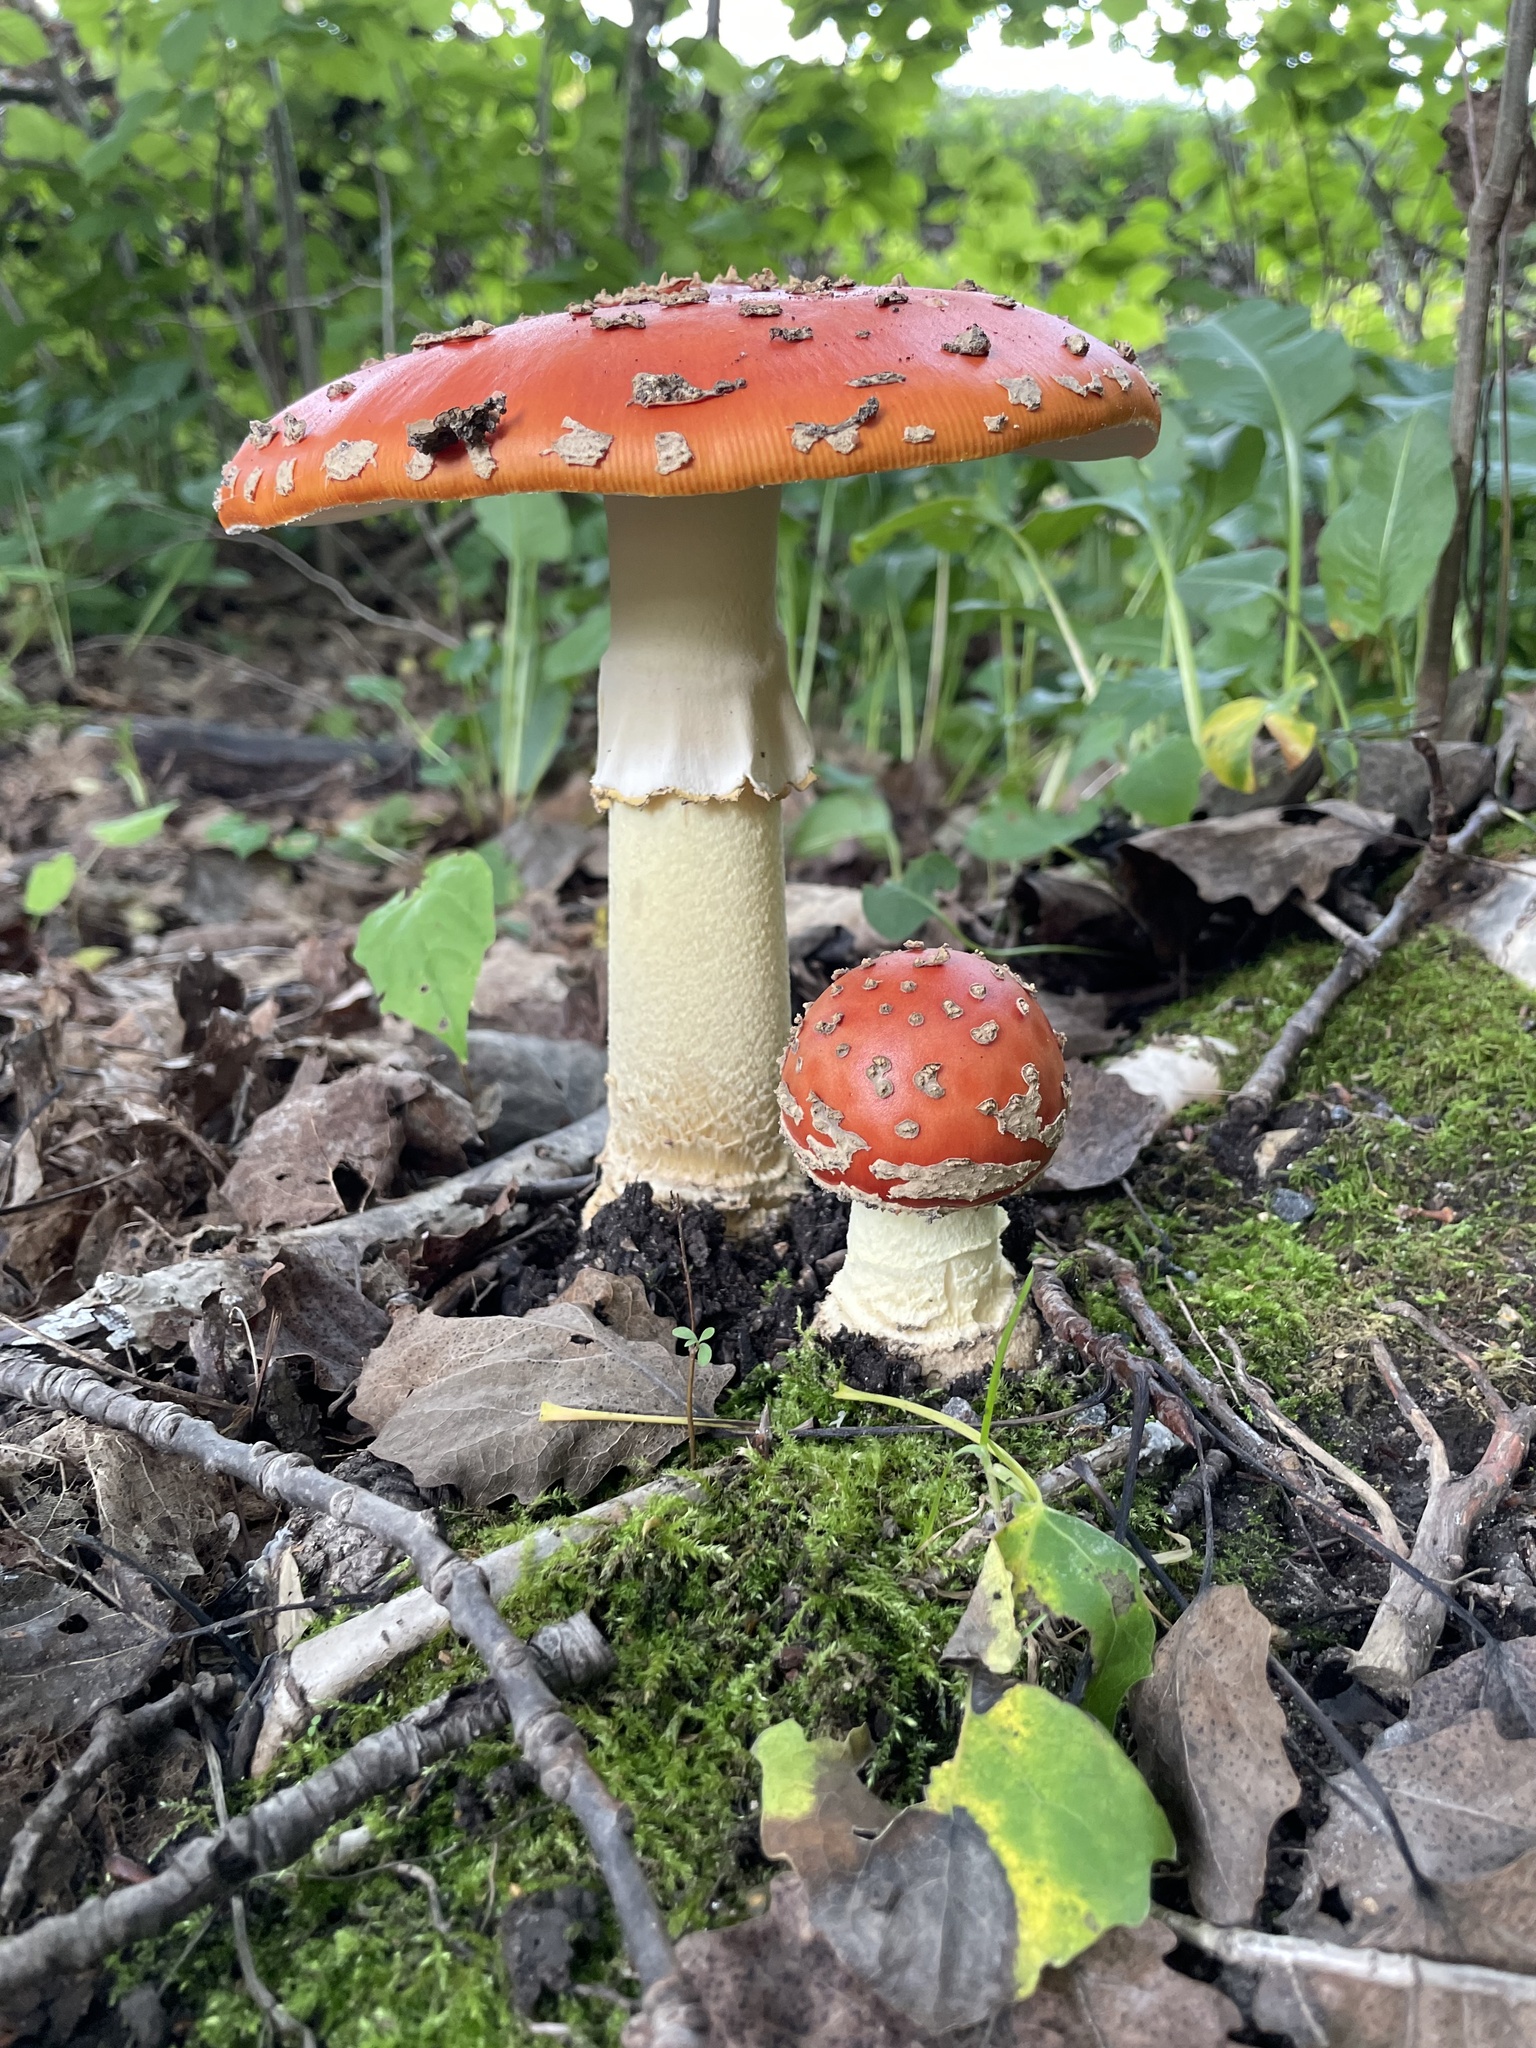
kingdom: Fungi
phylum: Basidiomycota
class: Agaricomycetes
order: Agaricales
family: Amanitaceae
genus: Amanita
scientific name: Amanita muscaria
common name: Fly agaric
